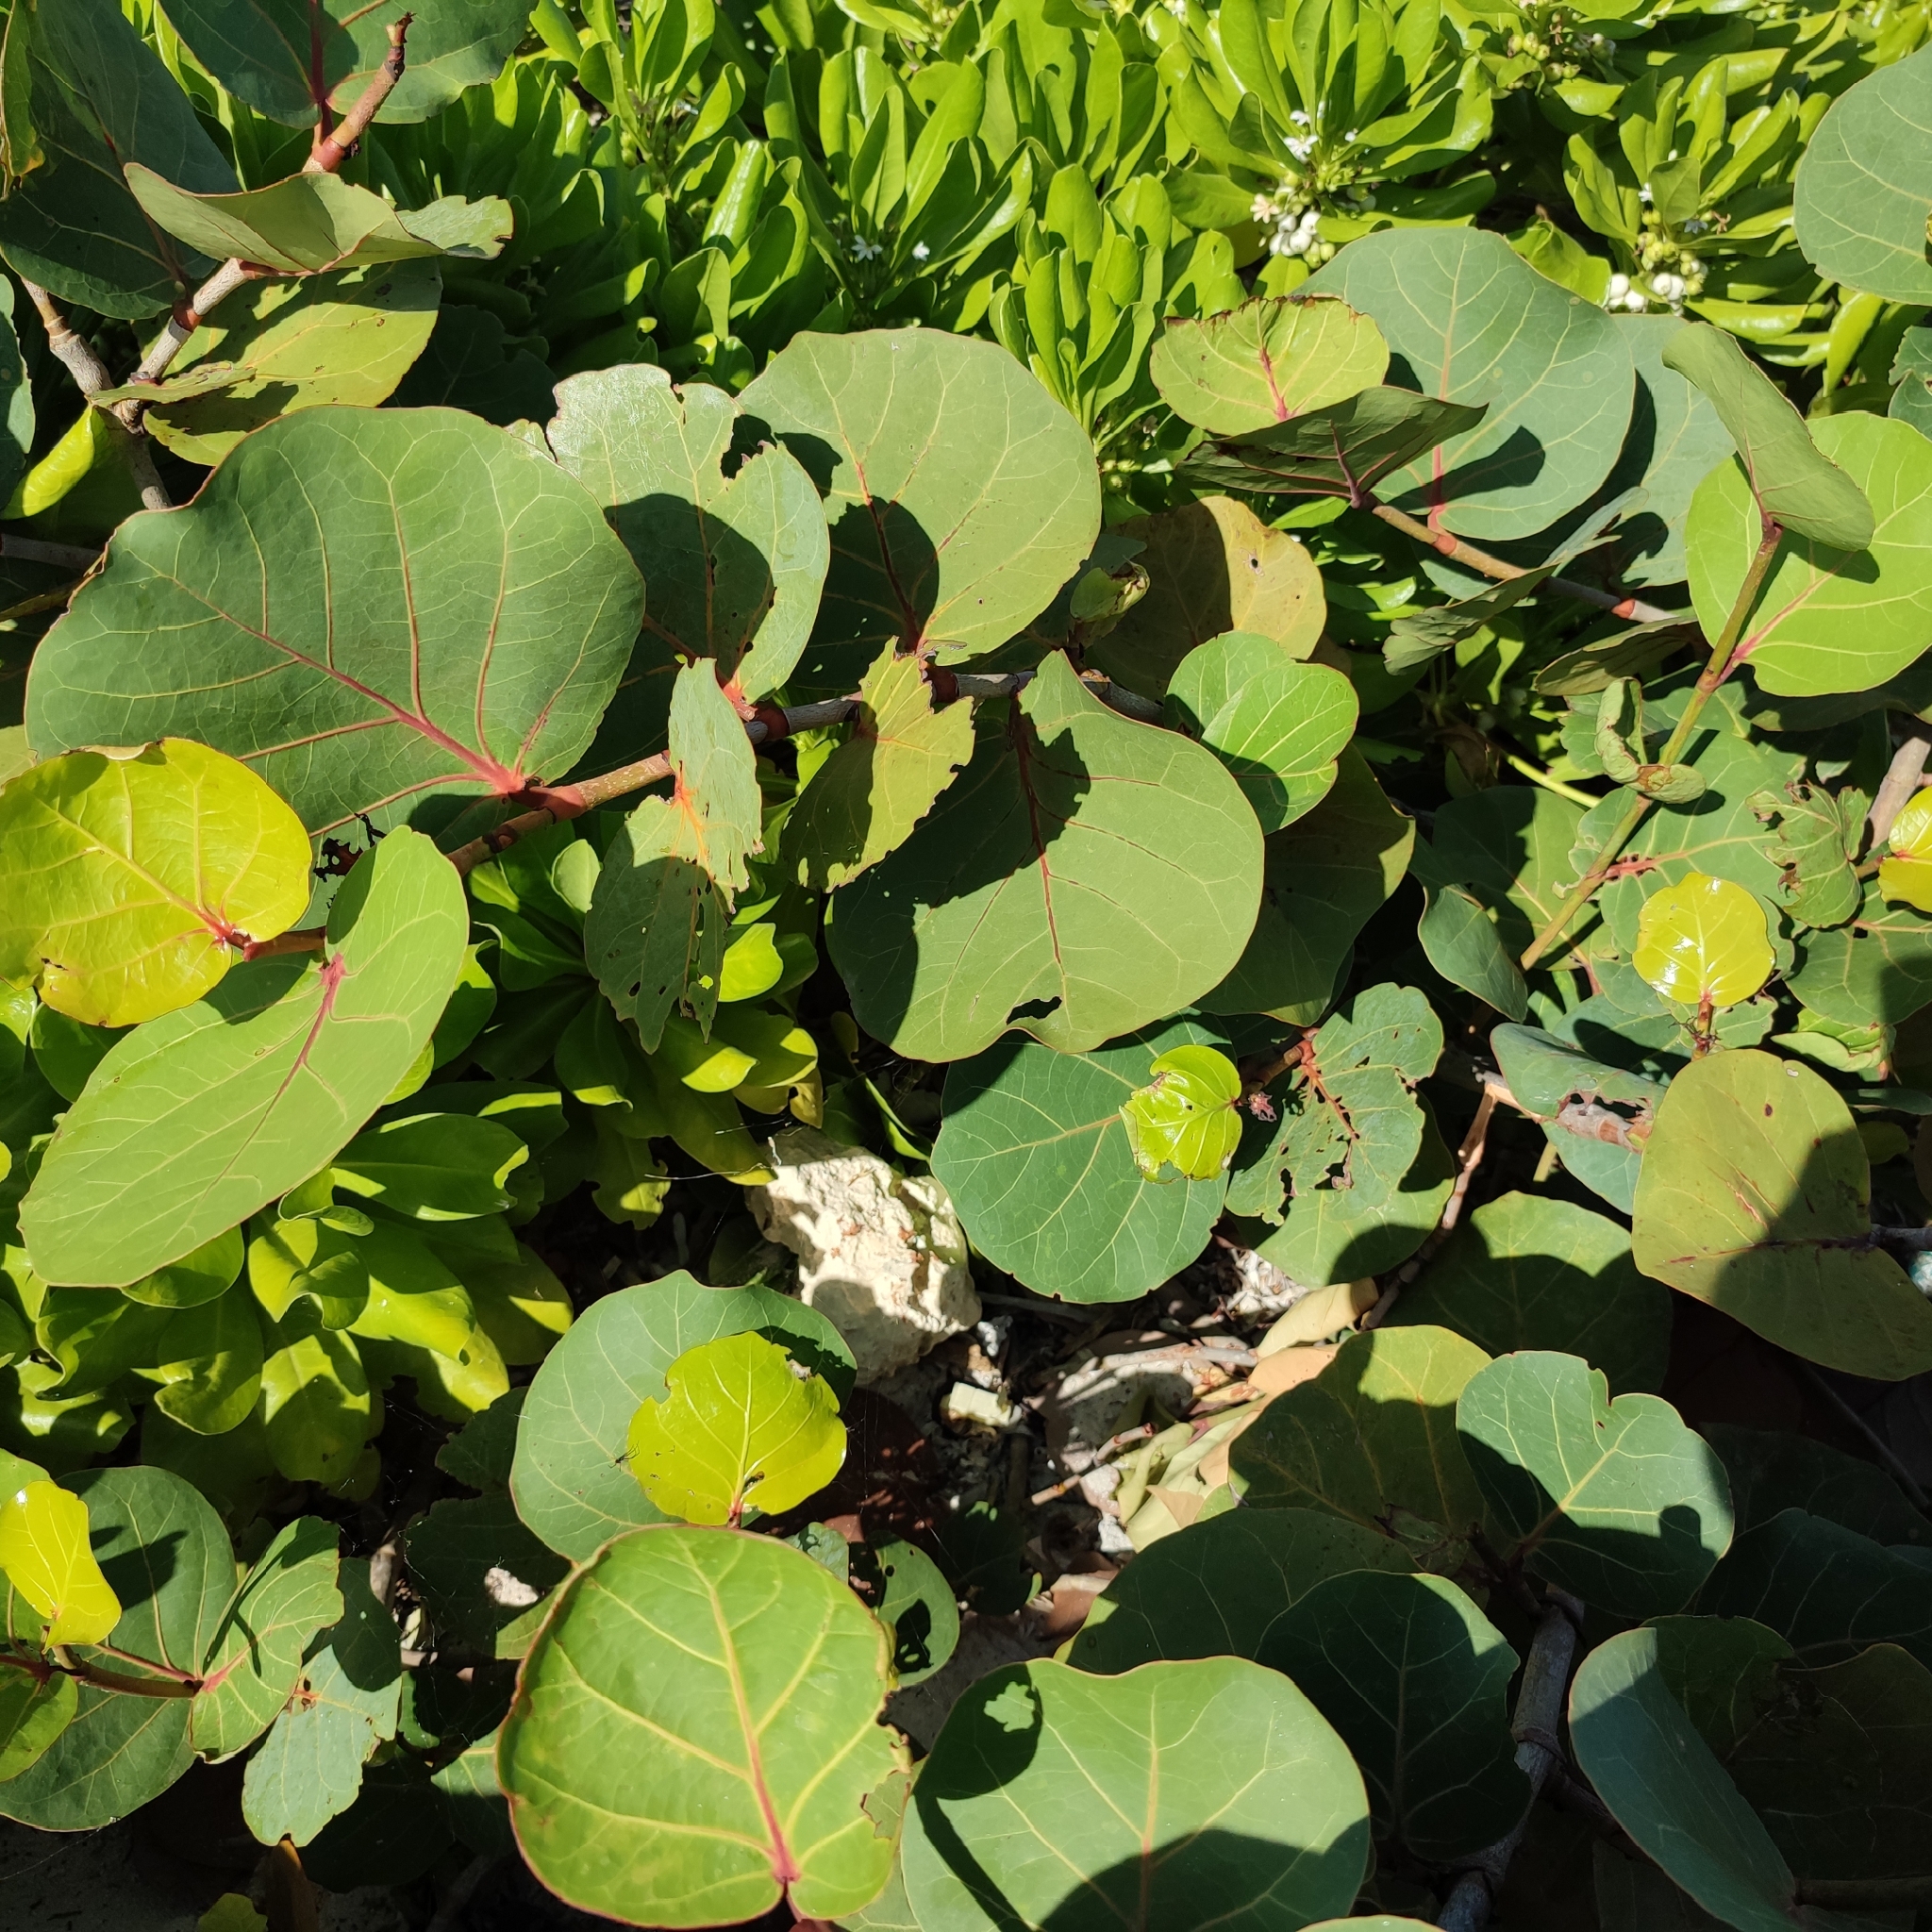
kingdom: Plantae
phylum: Tracheophyta
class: Magnoliopsida
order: Caryophyllales
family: Polygonaceae
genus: Coccoloba
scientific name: Coccoloba uvifera
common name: Seagrape
